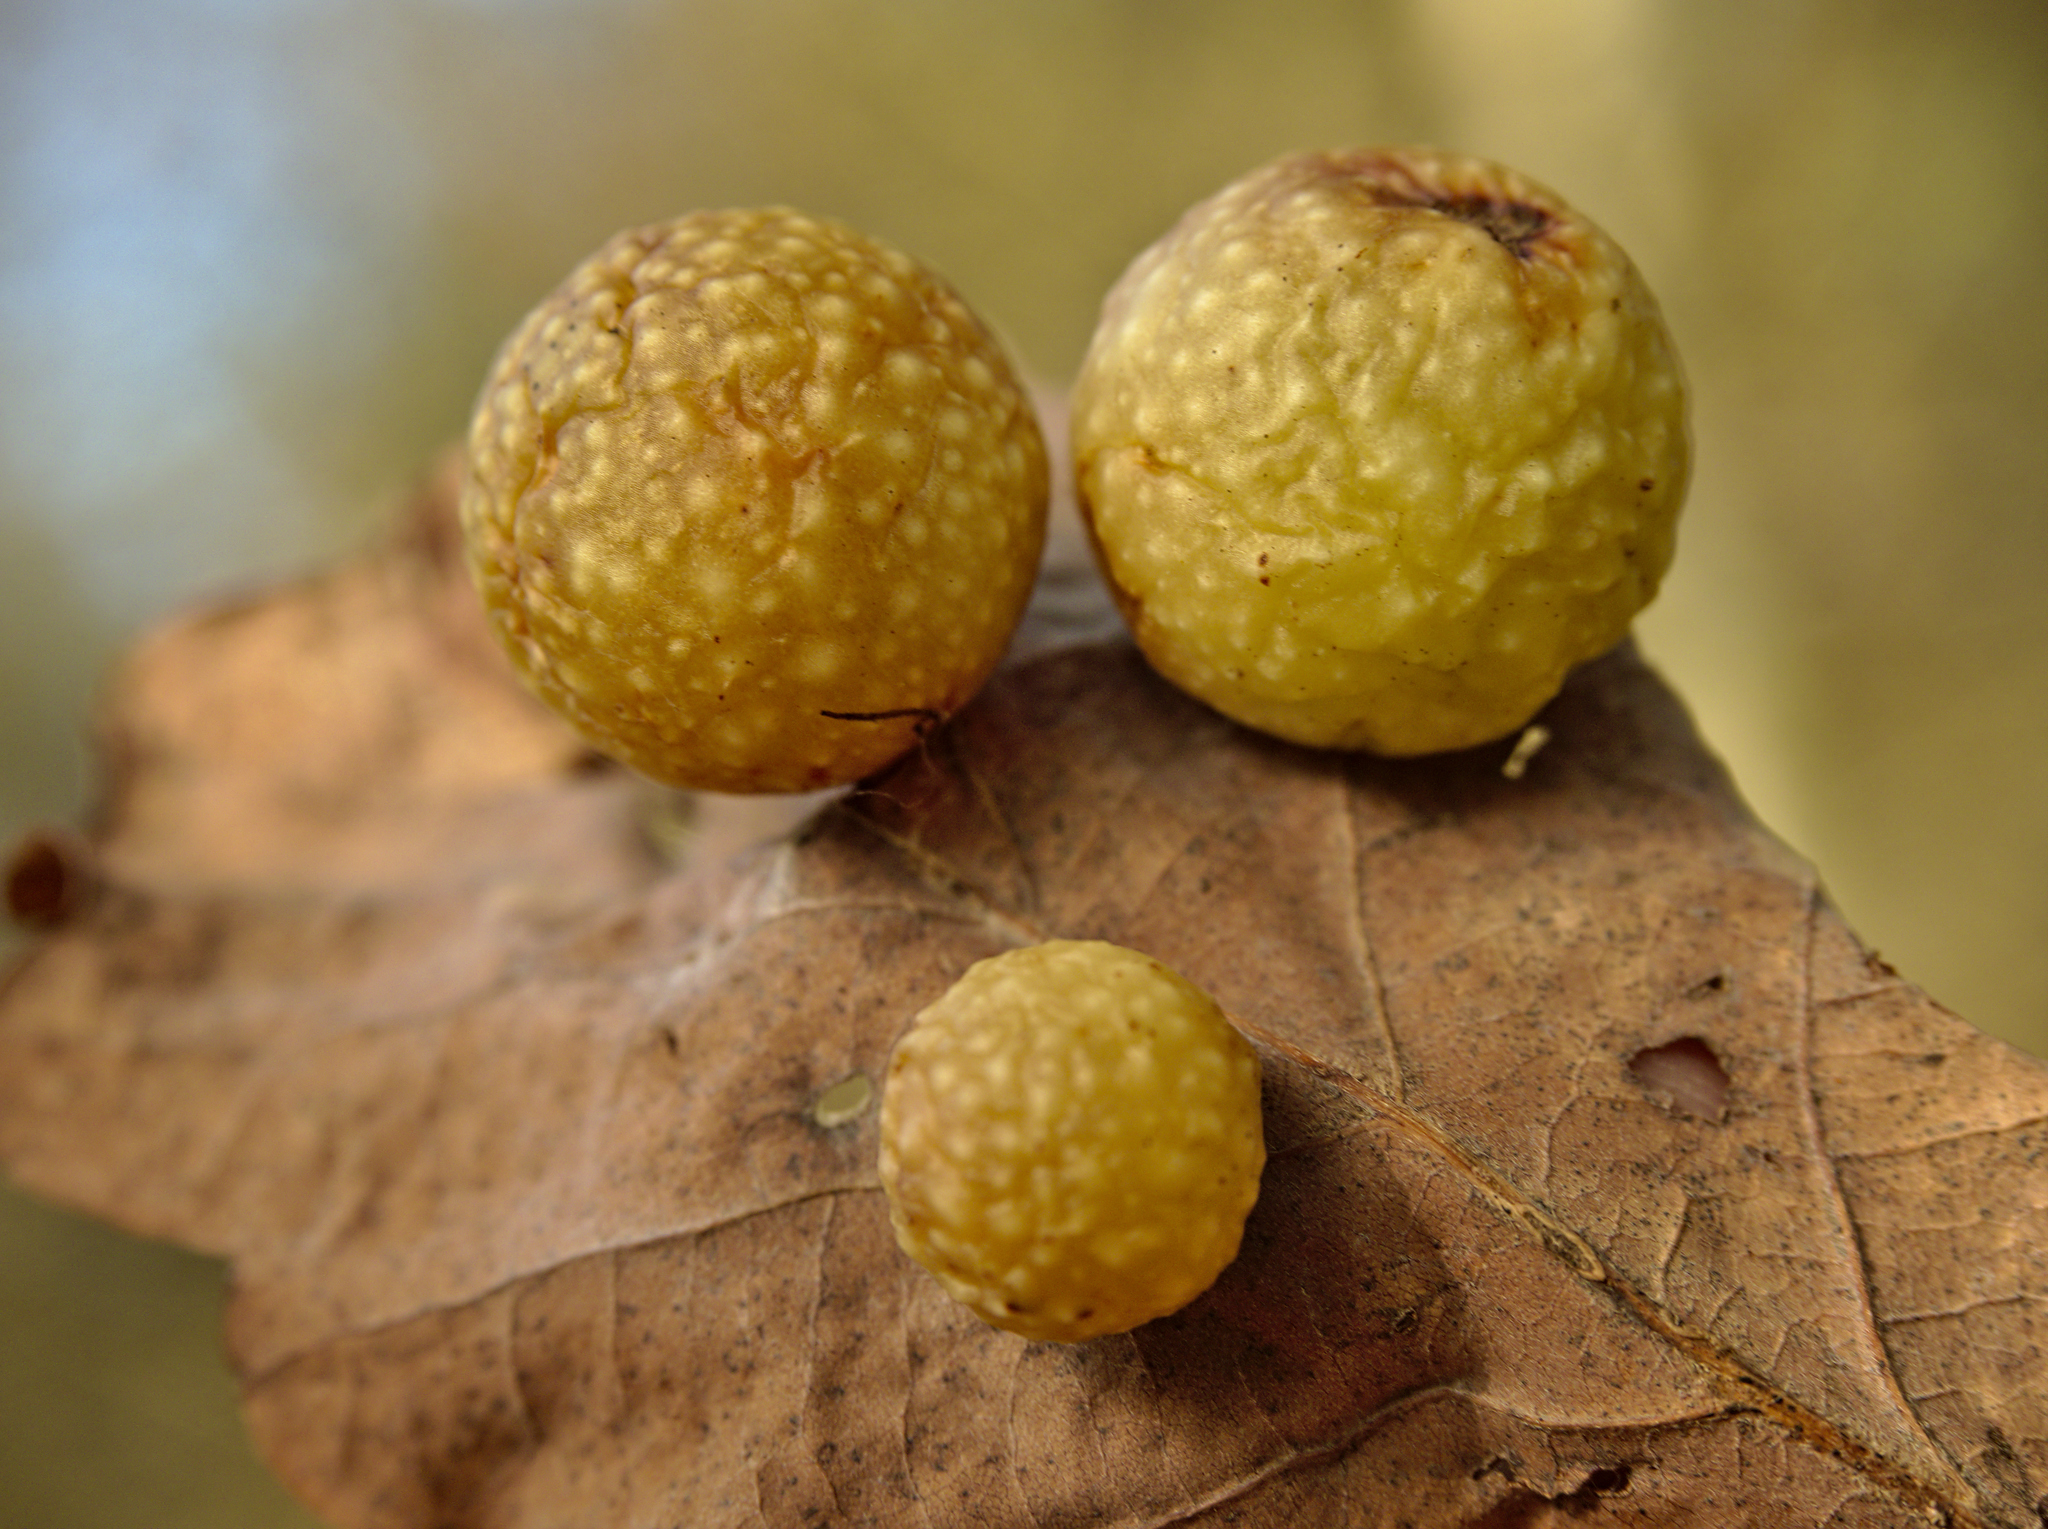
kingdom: Animalia
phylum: Arthropoda
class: Insecta
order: Hymenoptera
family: Cynipidae
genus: Cynips
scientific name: Cynips quercusfolii
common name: Cherry gall
